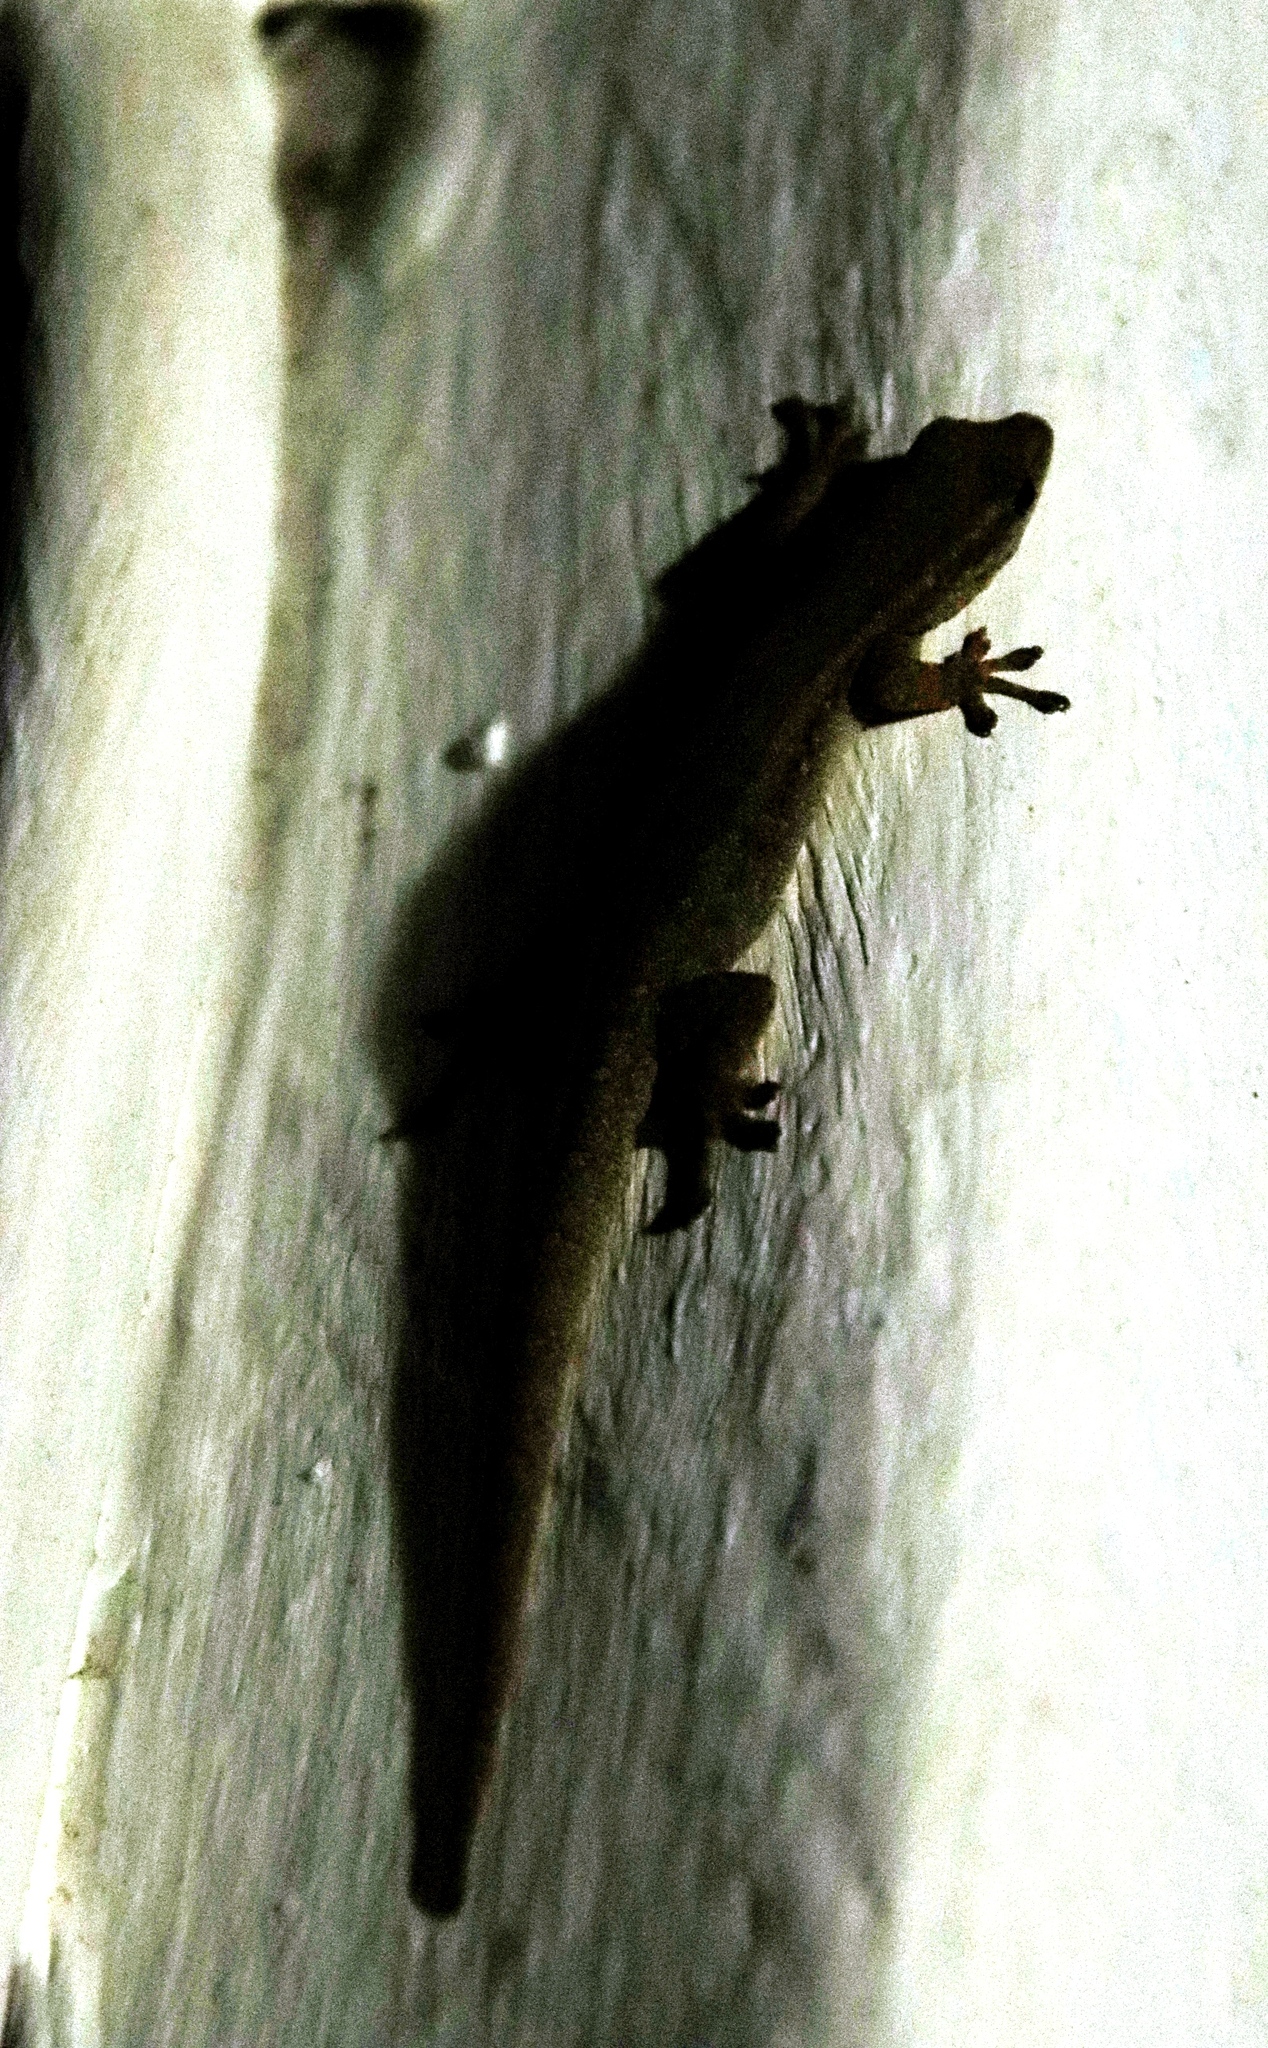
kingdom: Animalia
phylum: Chordata
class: Squamata
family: Gekkonidae
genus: Lygodactylus
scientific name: Lygodactylus capensis
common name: Cape dwarf gecko
